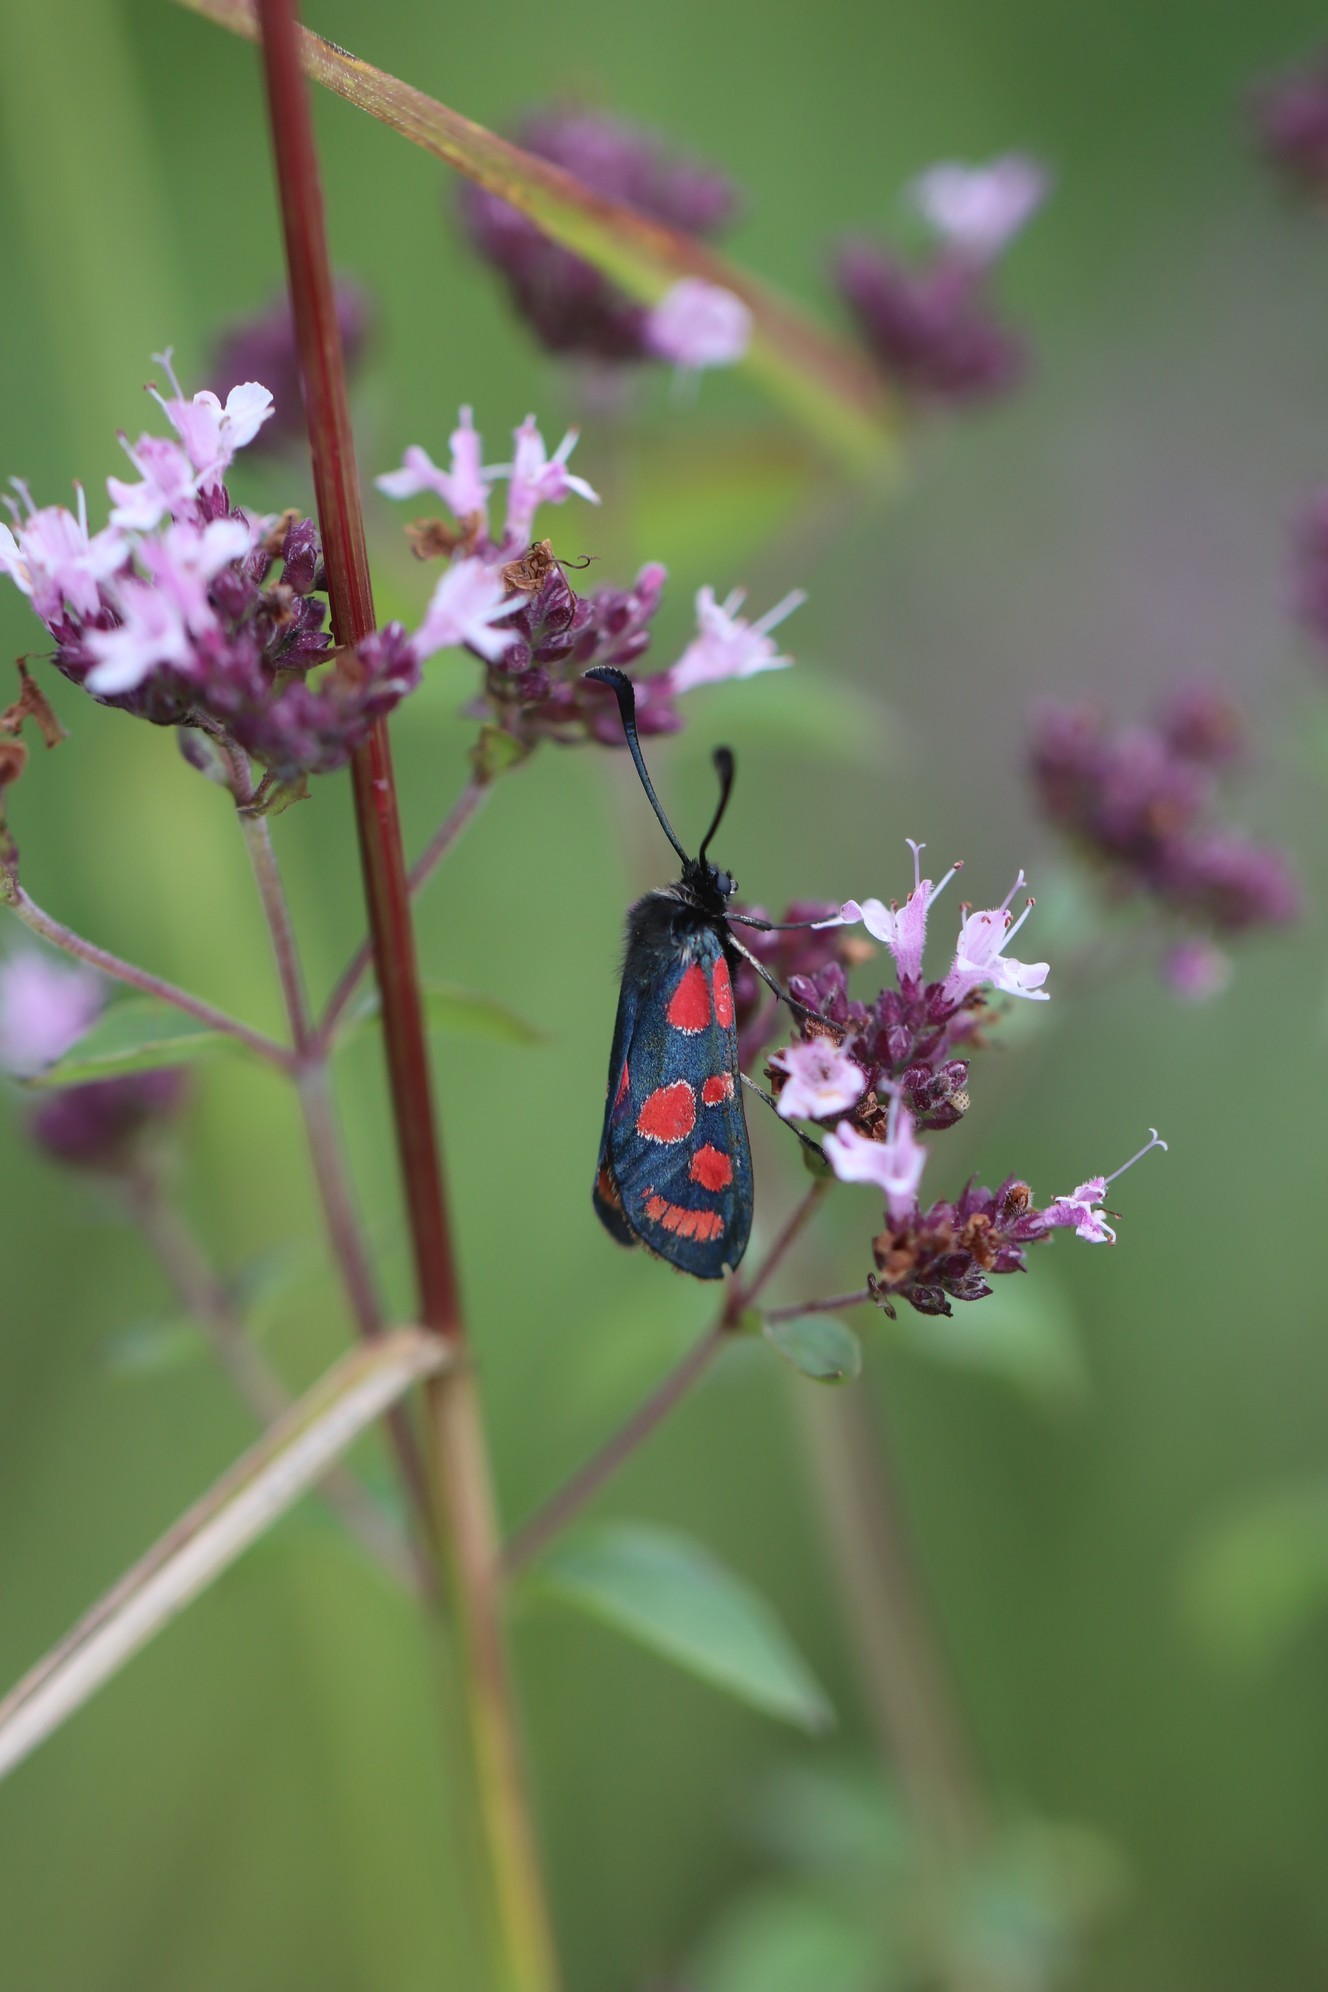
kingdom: Animalia
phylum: Arthropoda
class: Insecta
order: Lepidoptera
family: Zygaenidae
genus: Zygaena
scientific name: Zygaena loti
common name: Slender scotch burnet
